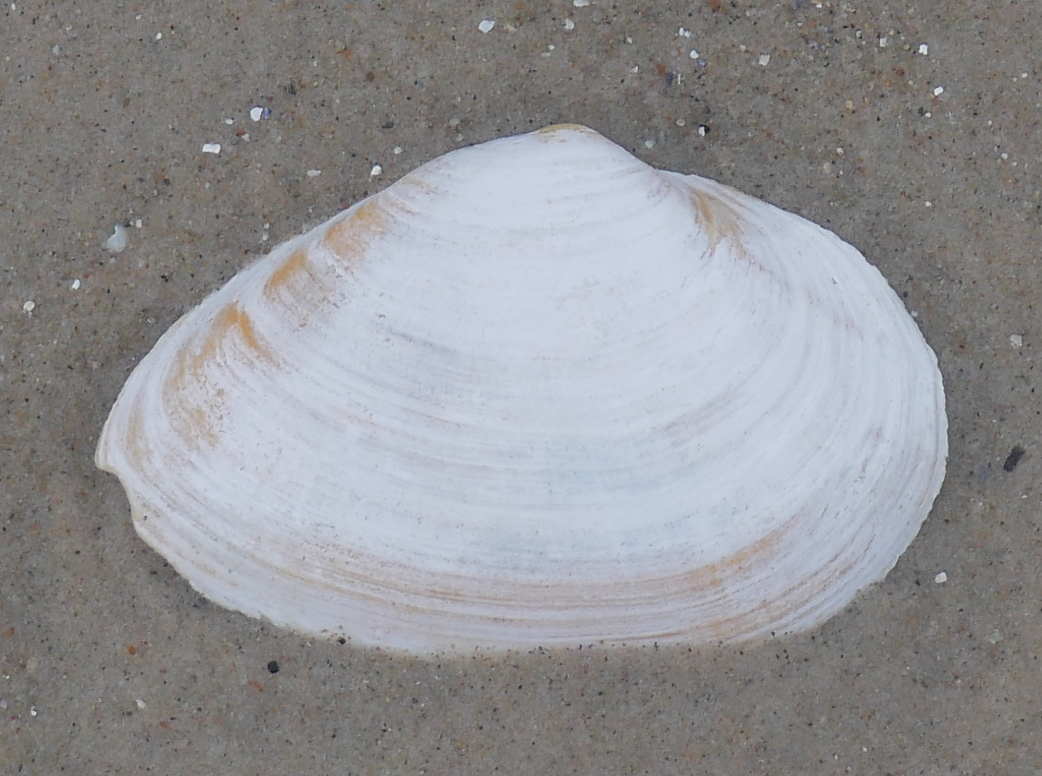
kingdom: Animalia
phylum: Mollusca
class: Bivalvia
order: Myida
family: Myidae
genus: Mya
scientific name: Mya arenaria
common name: Soft-shelled clam
